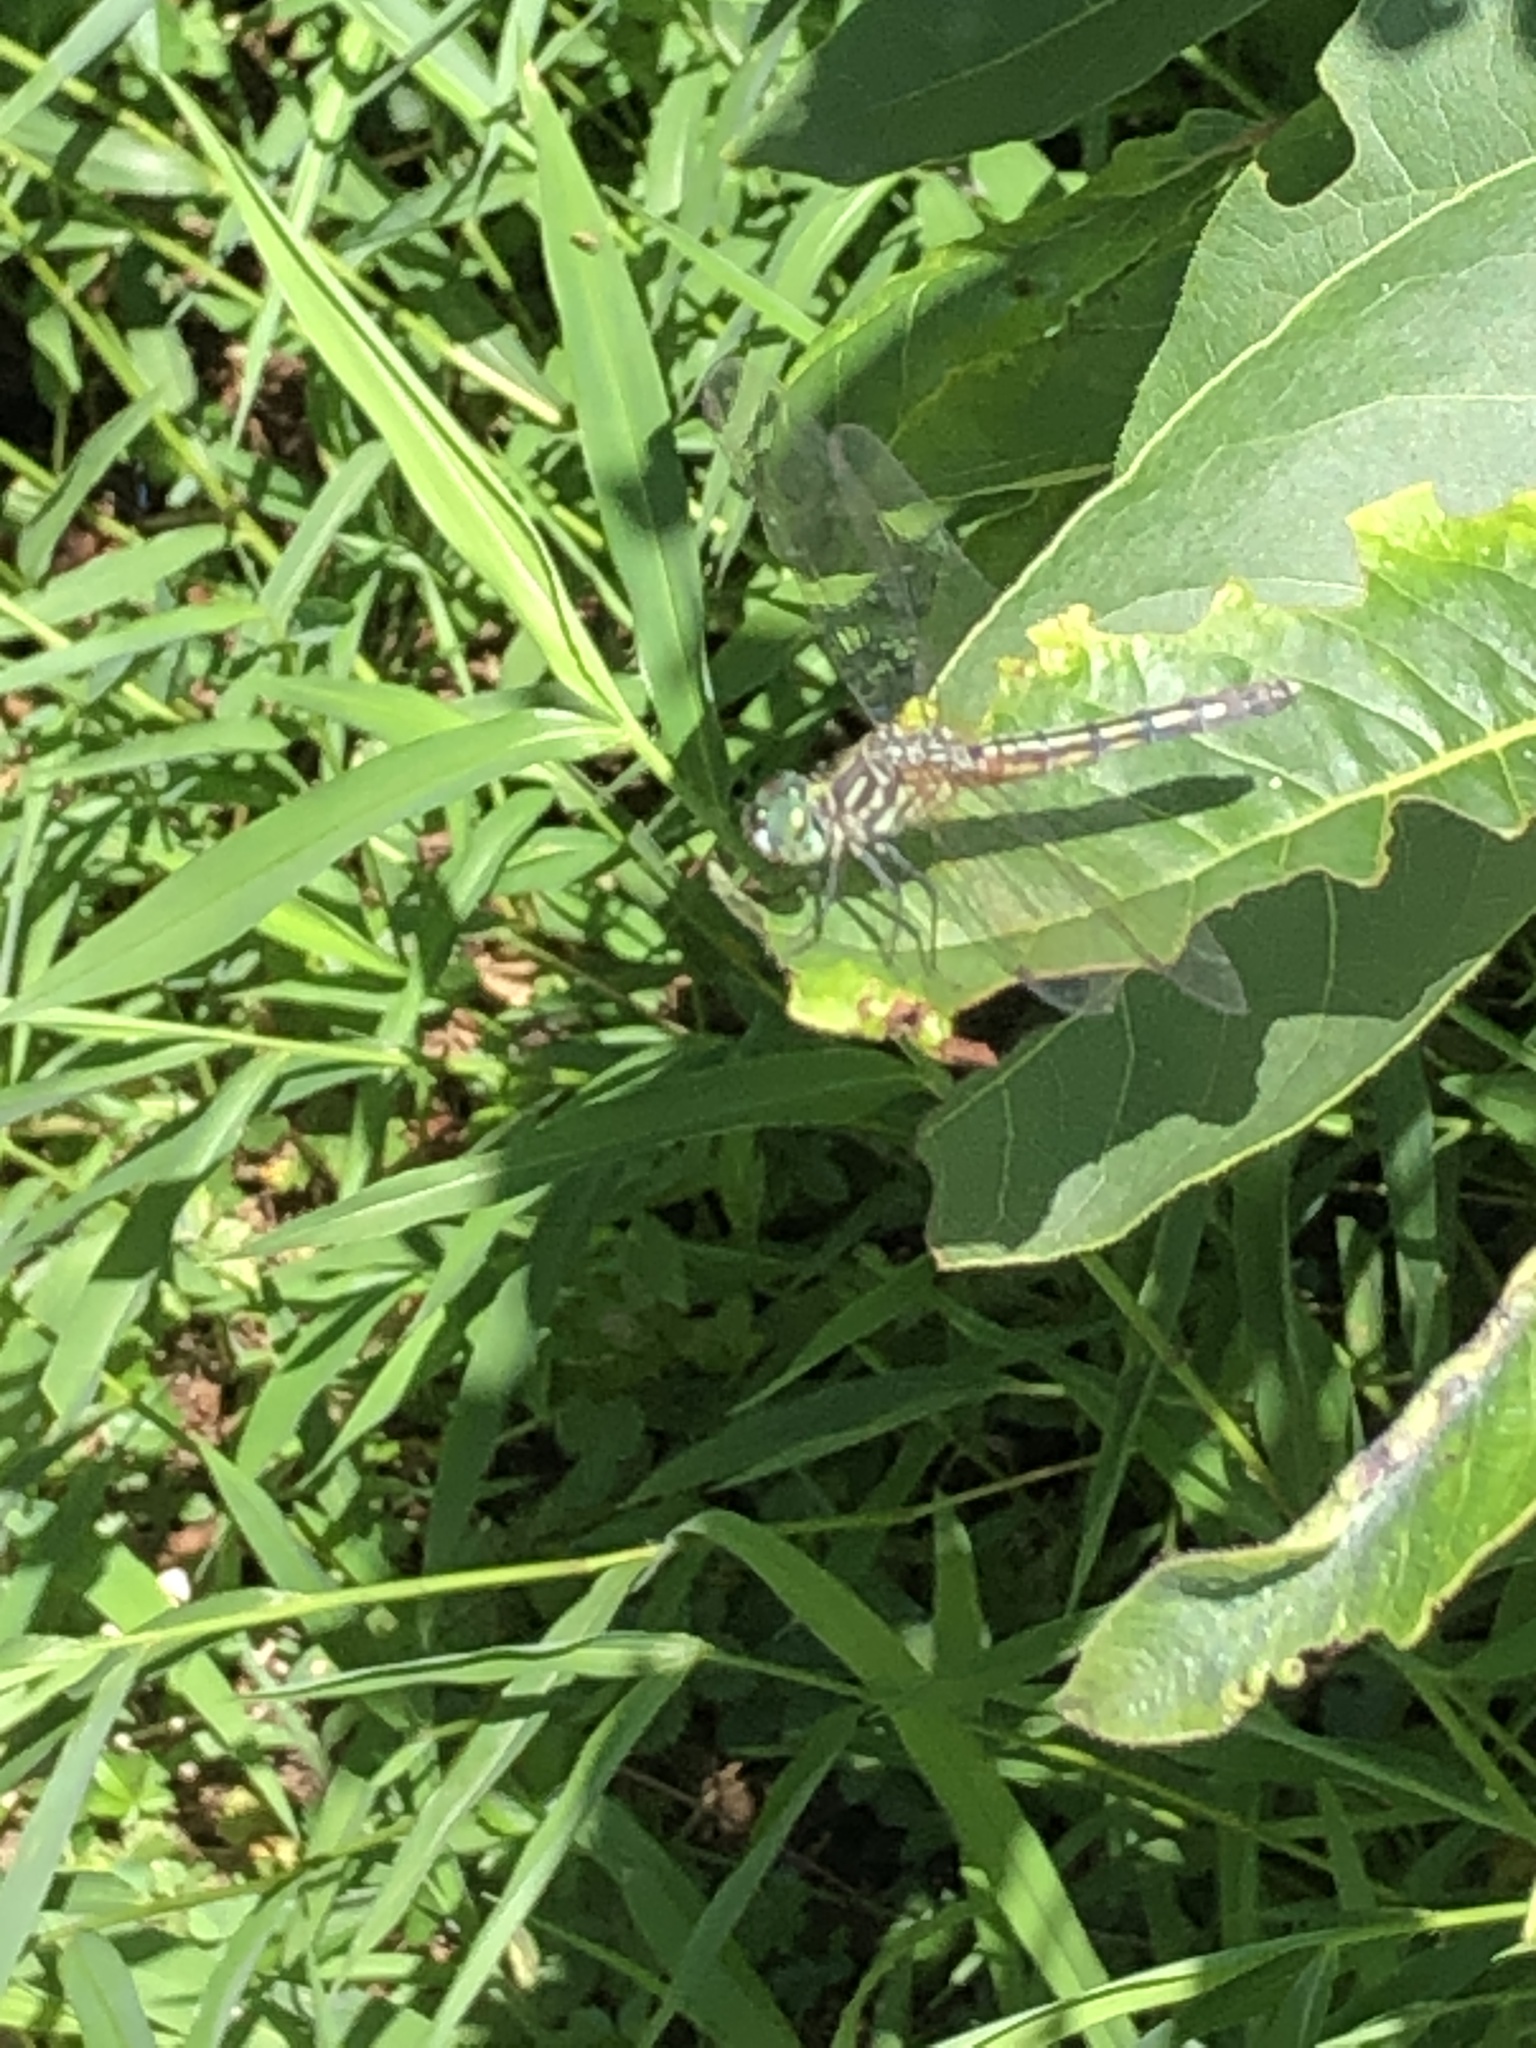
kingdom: Animalia
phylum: Arthropoda
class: Insecta
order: Odonata
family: Libellulidae
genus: Pachydiplax
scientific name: Pachydiplax longipennis
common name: Blue dasher
